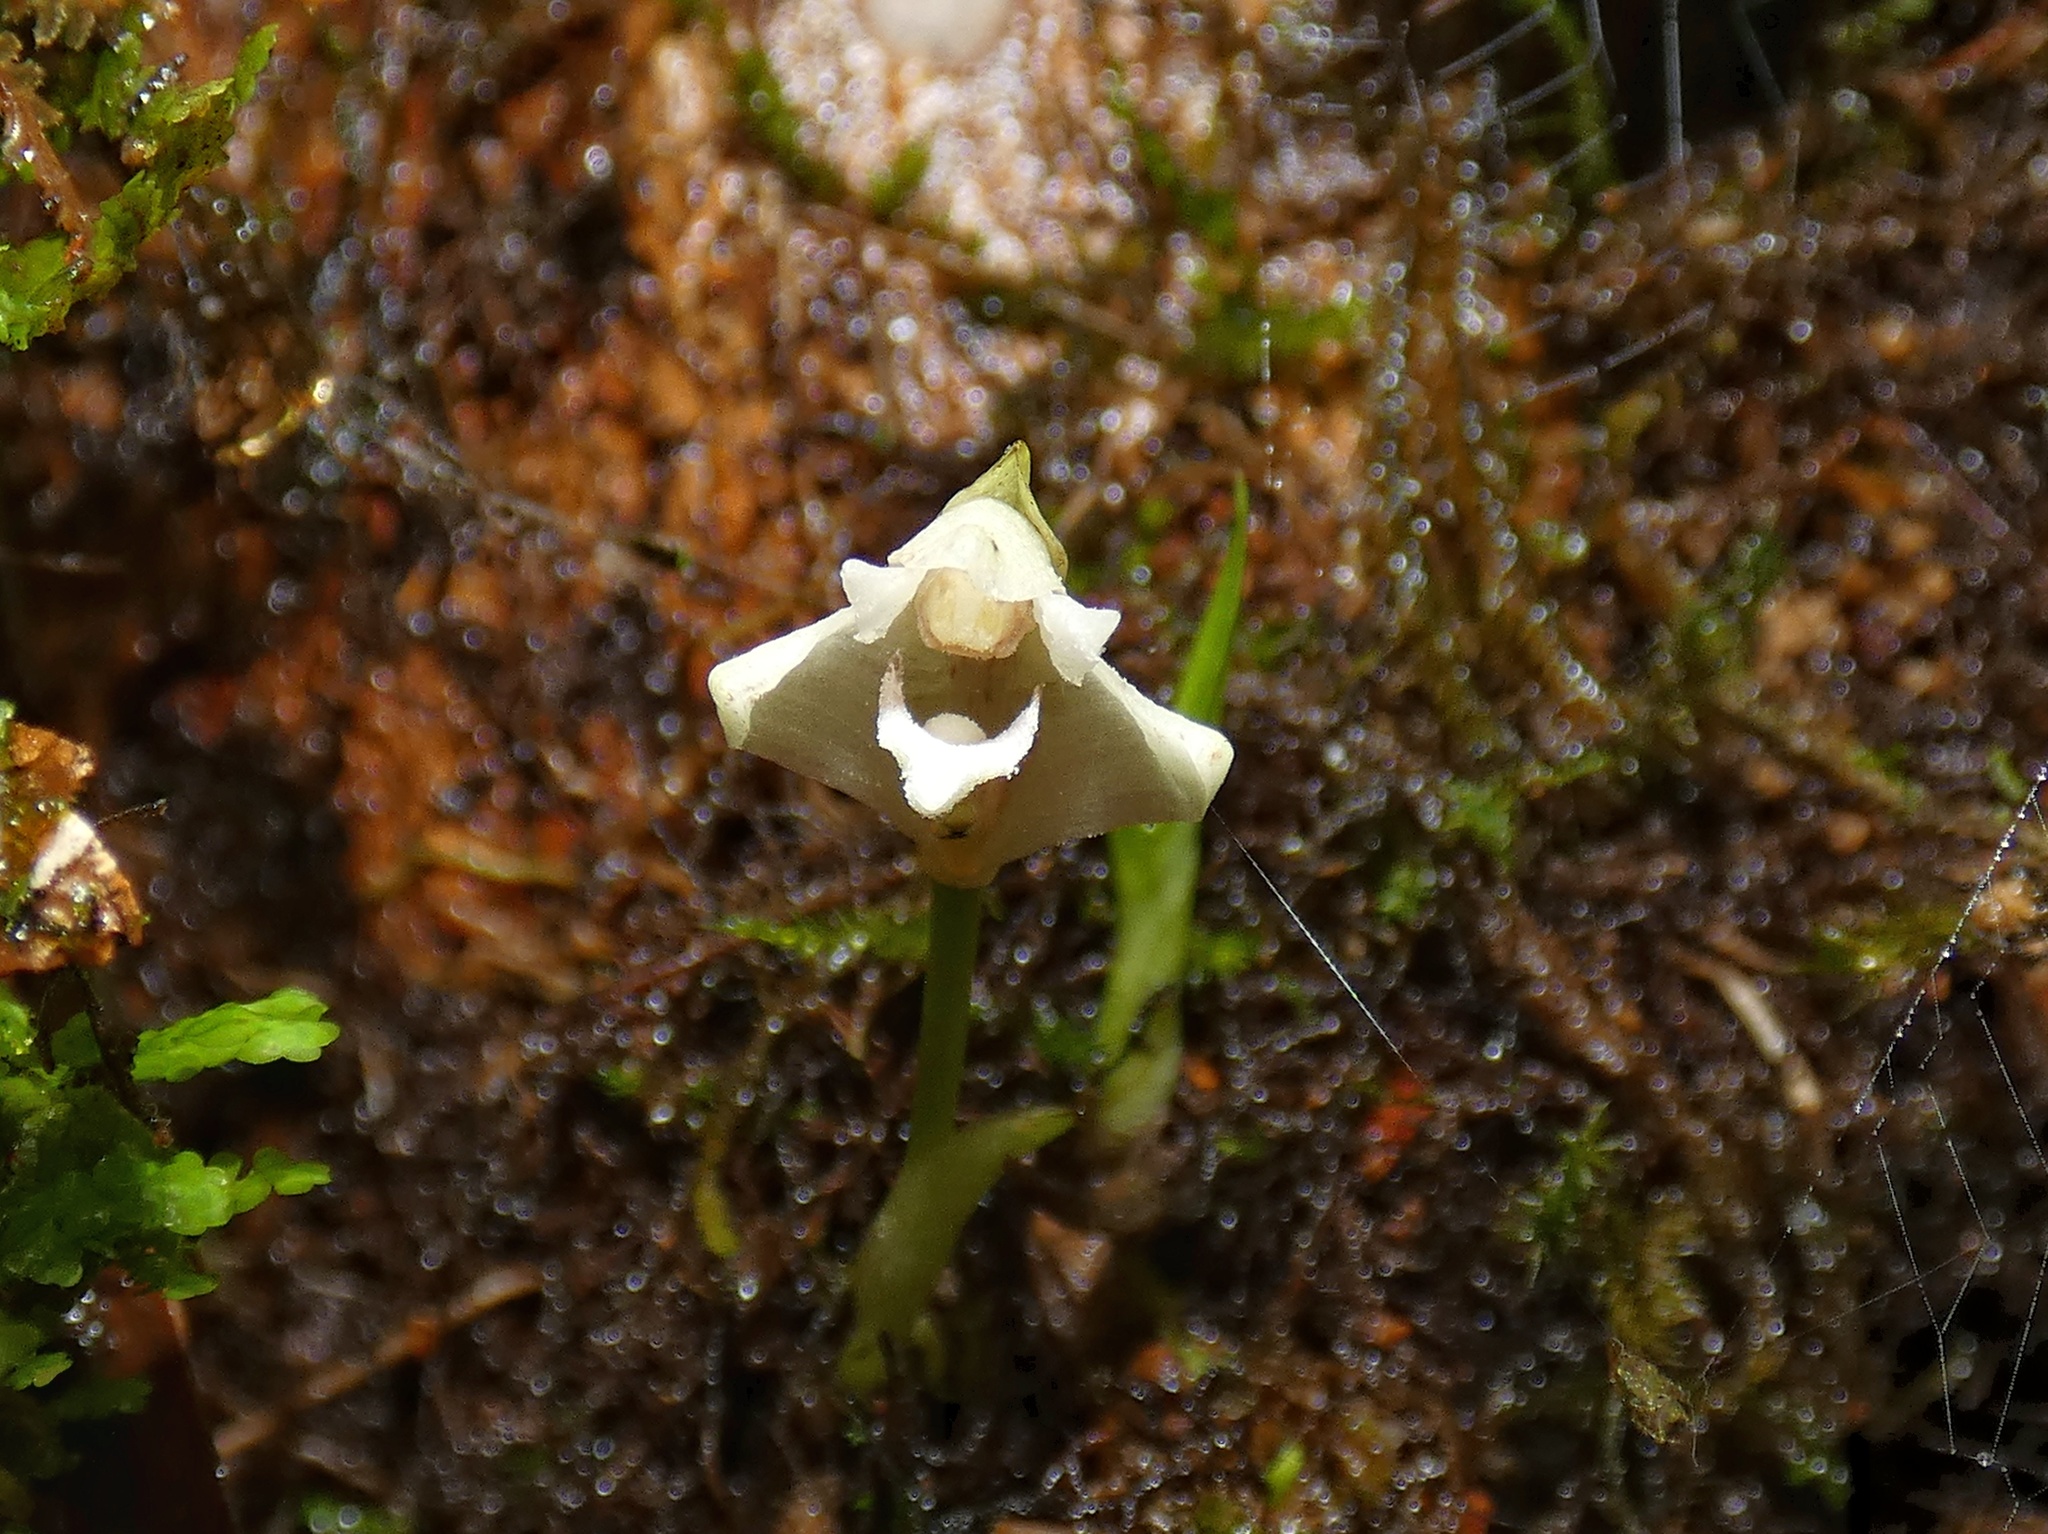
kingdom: Plantae
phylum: Tracheophyta
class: Liliopsida
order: Asparagales
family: Orchidaceae
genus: Maxillaria
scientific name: Maxillaria angustissima
